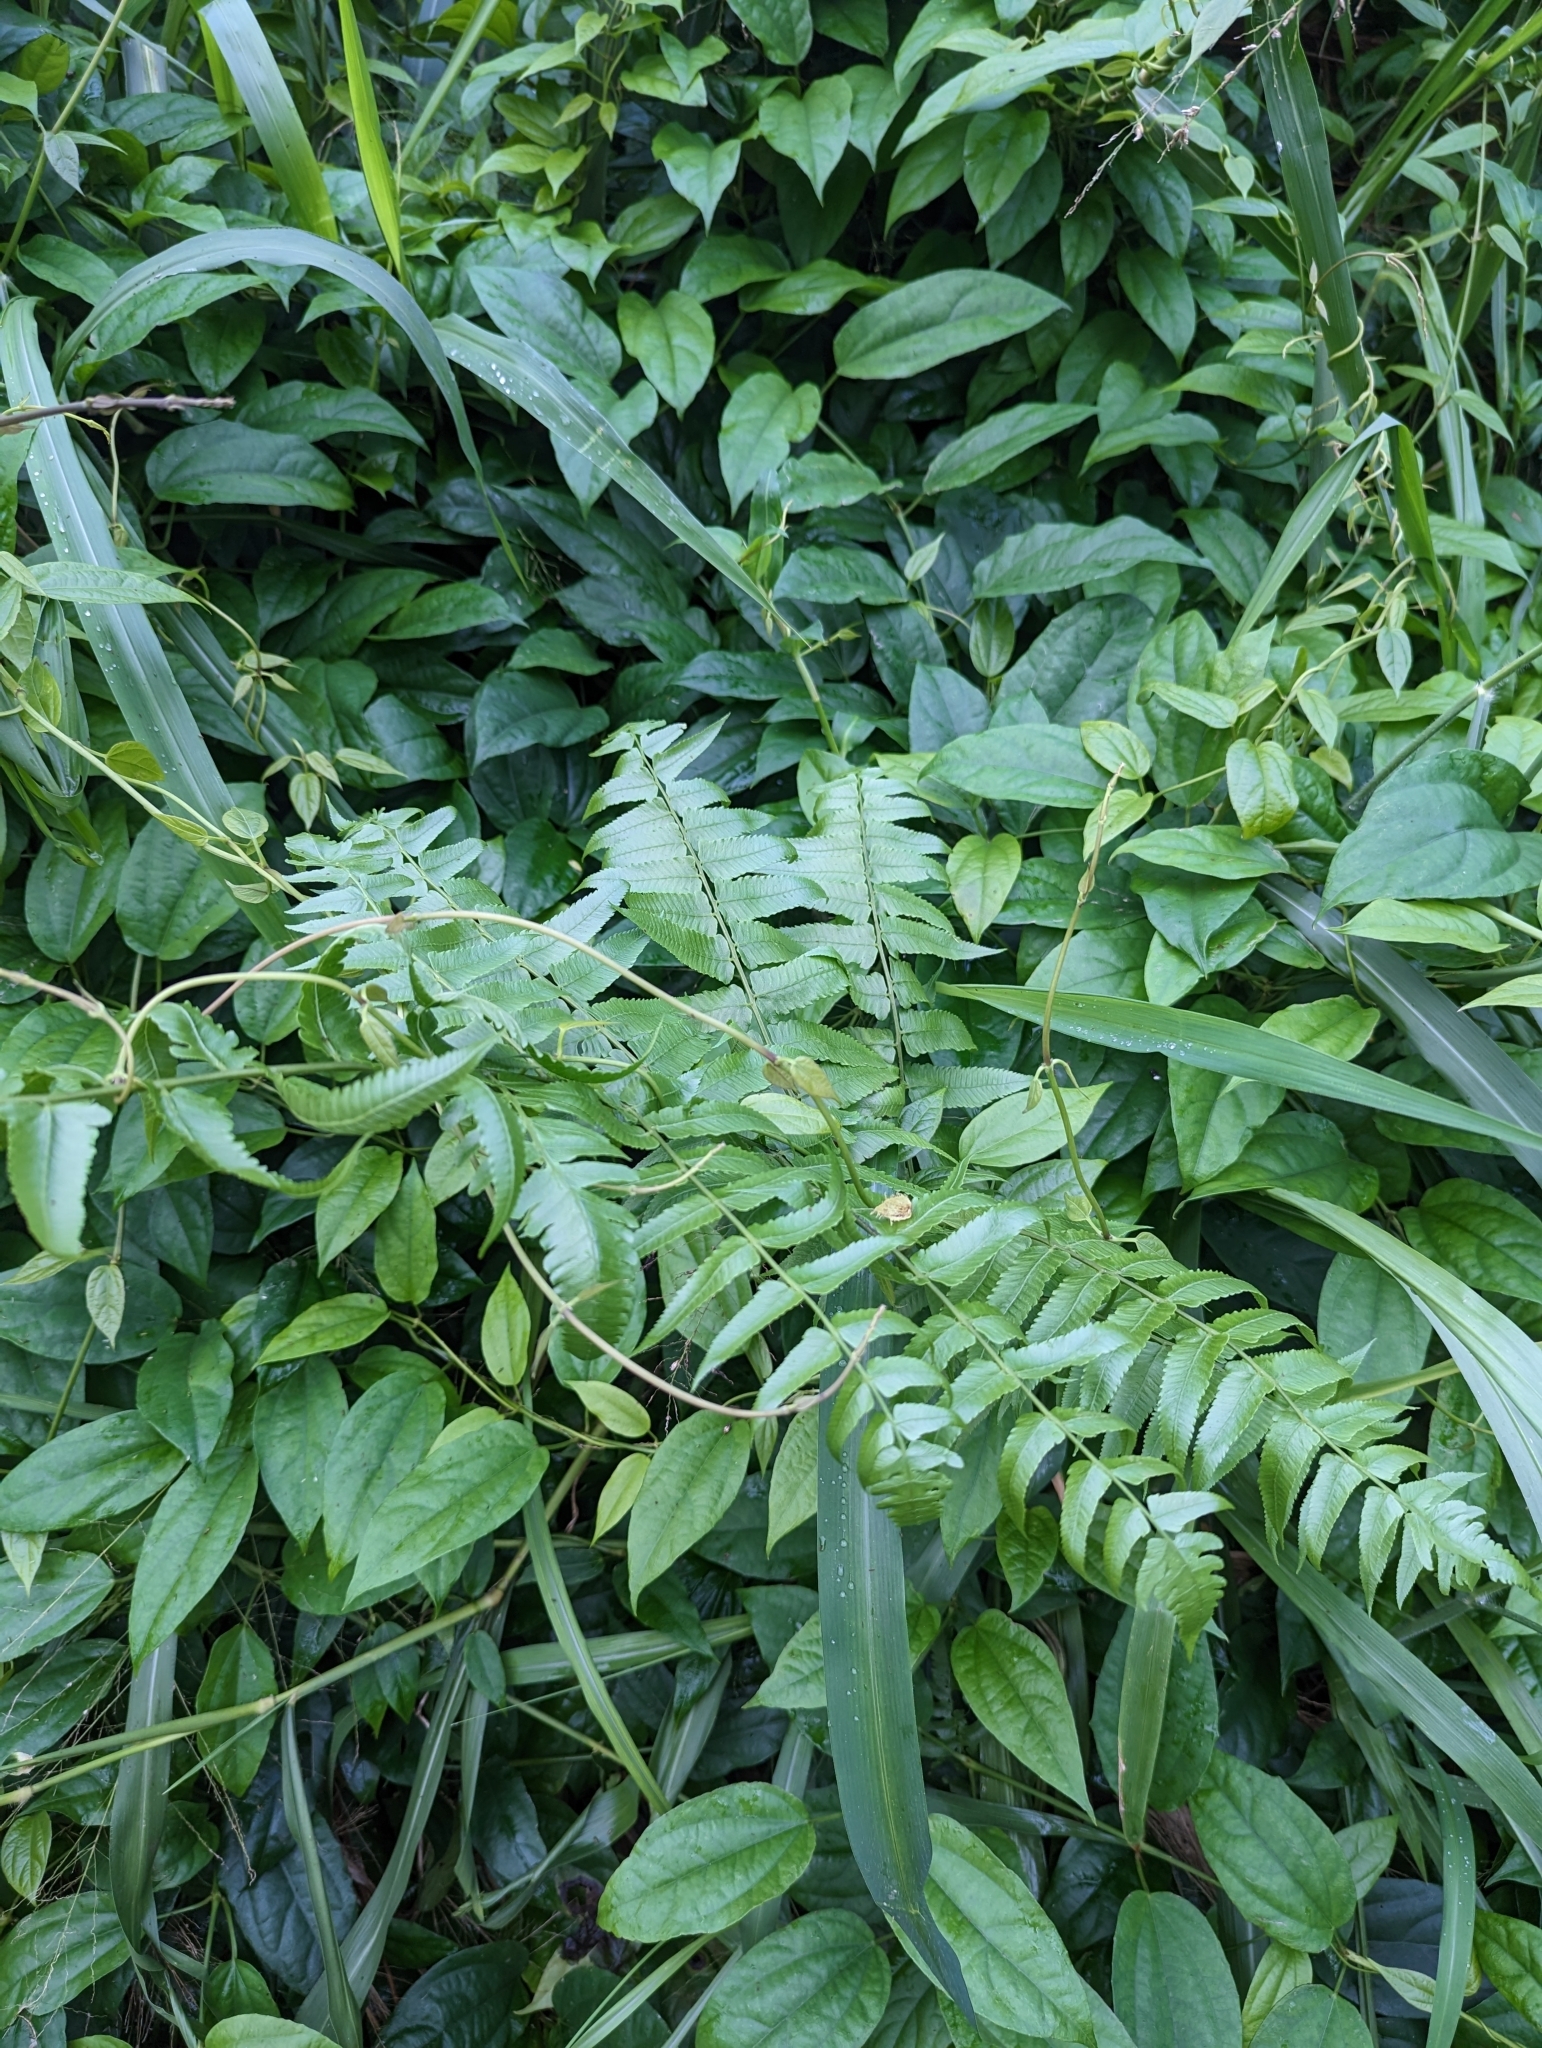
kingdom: Plantae
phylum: Tracheophyta
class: Polypodiopsida
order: Polypodiales
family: Athyriaceae
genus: Diplazium
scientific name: Diplazium esculentum
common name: Vegetable fern
